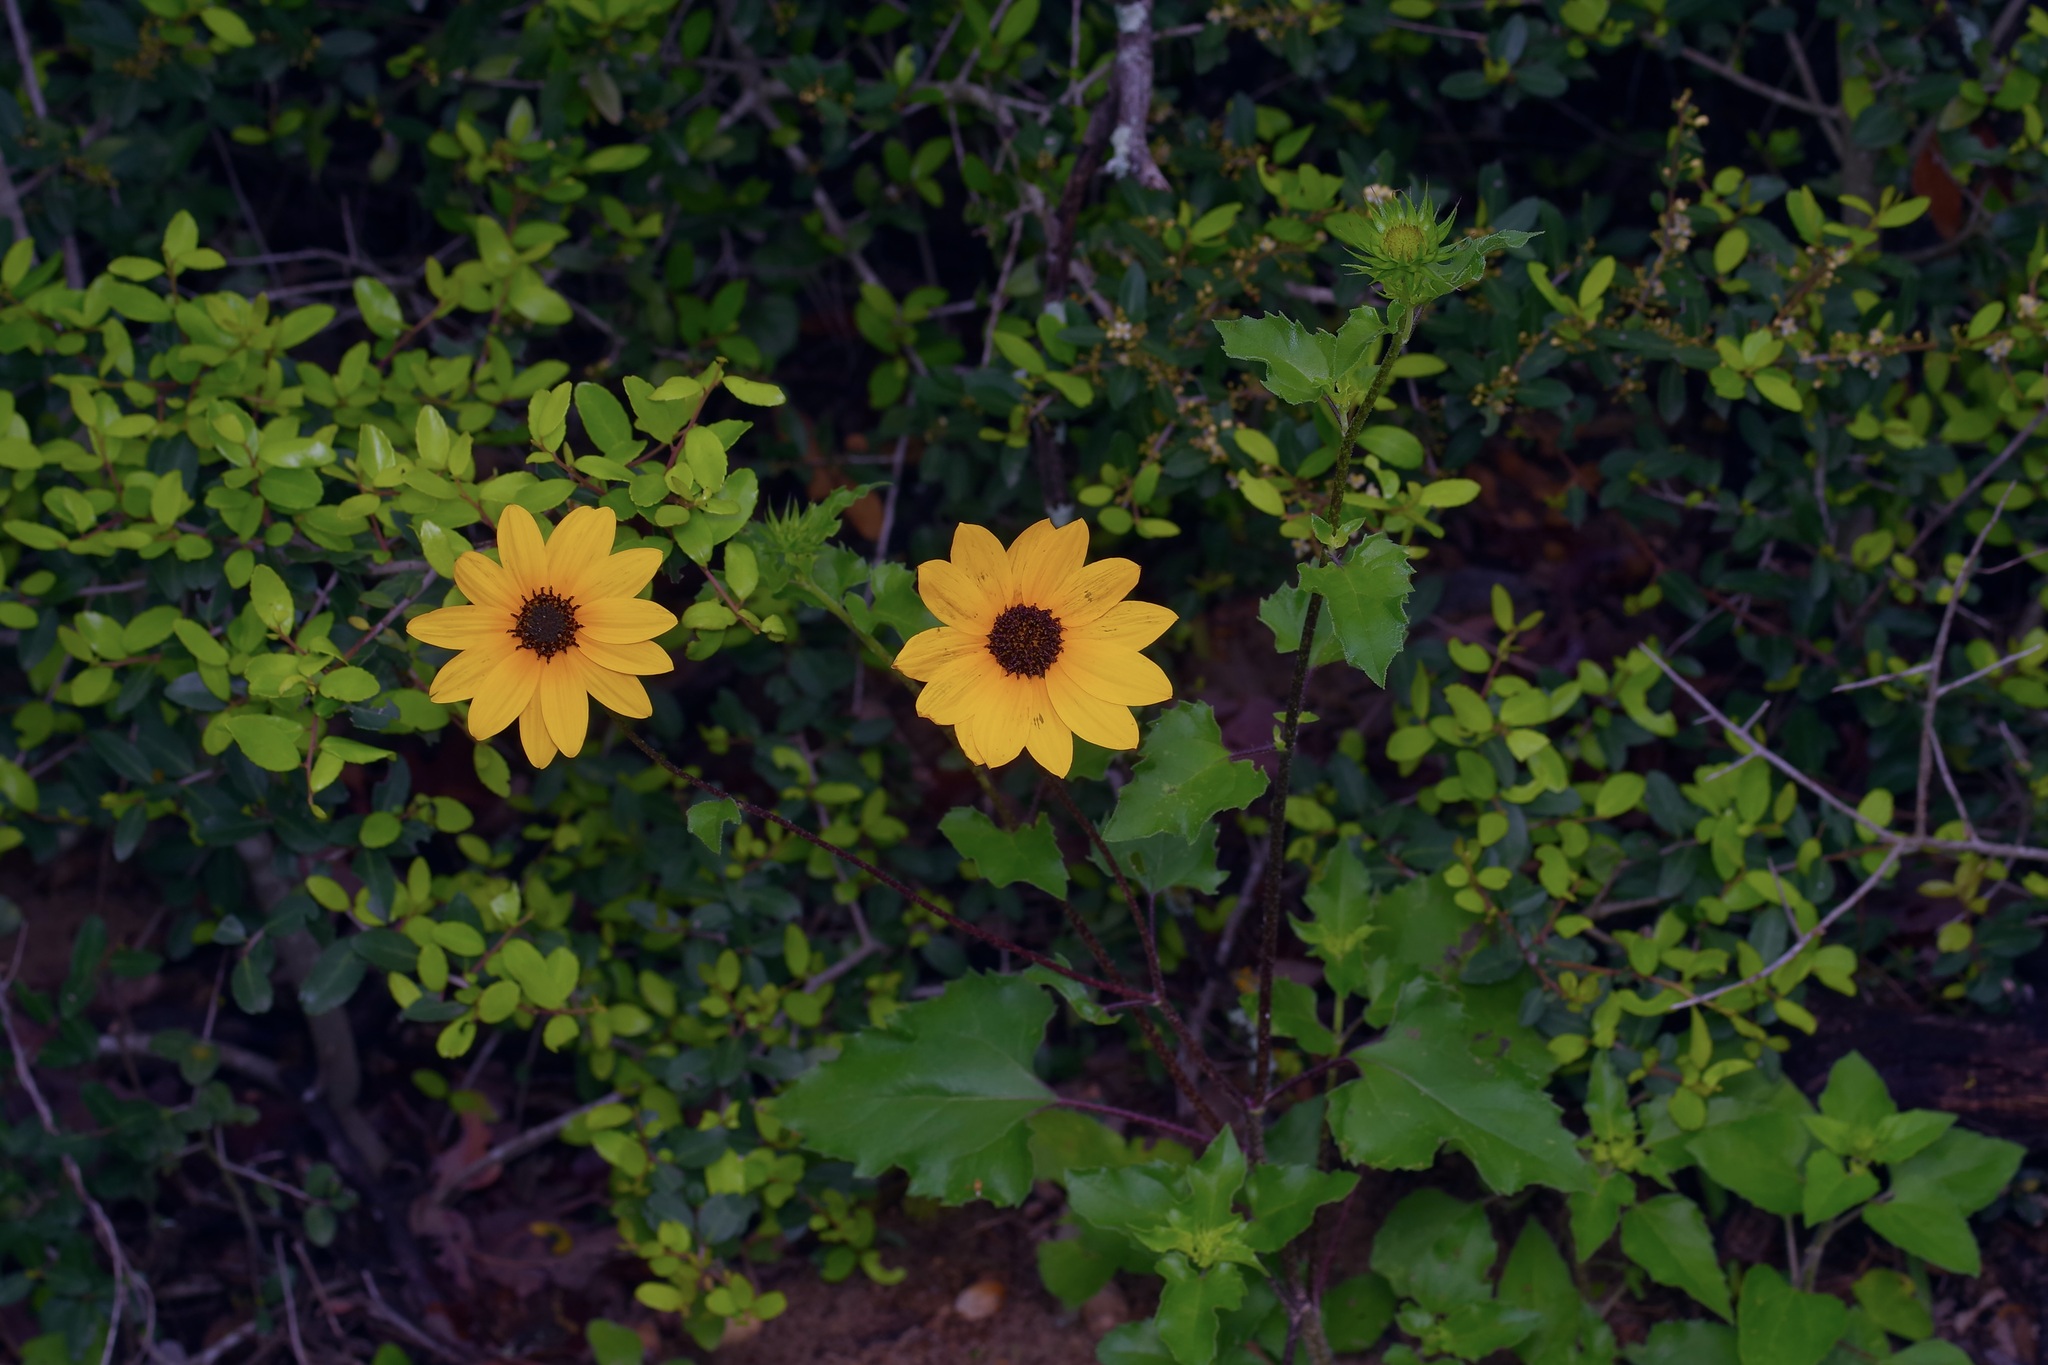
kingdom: Plantae
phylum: Tracheophyta
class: Magnoliopsida
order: Asterales
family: Asteraceae
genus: Helianthus
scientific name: Helianthus debilis
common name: Weak sunflower
